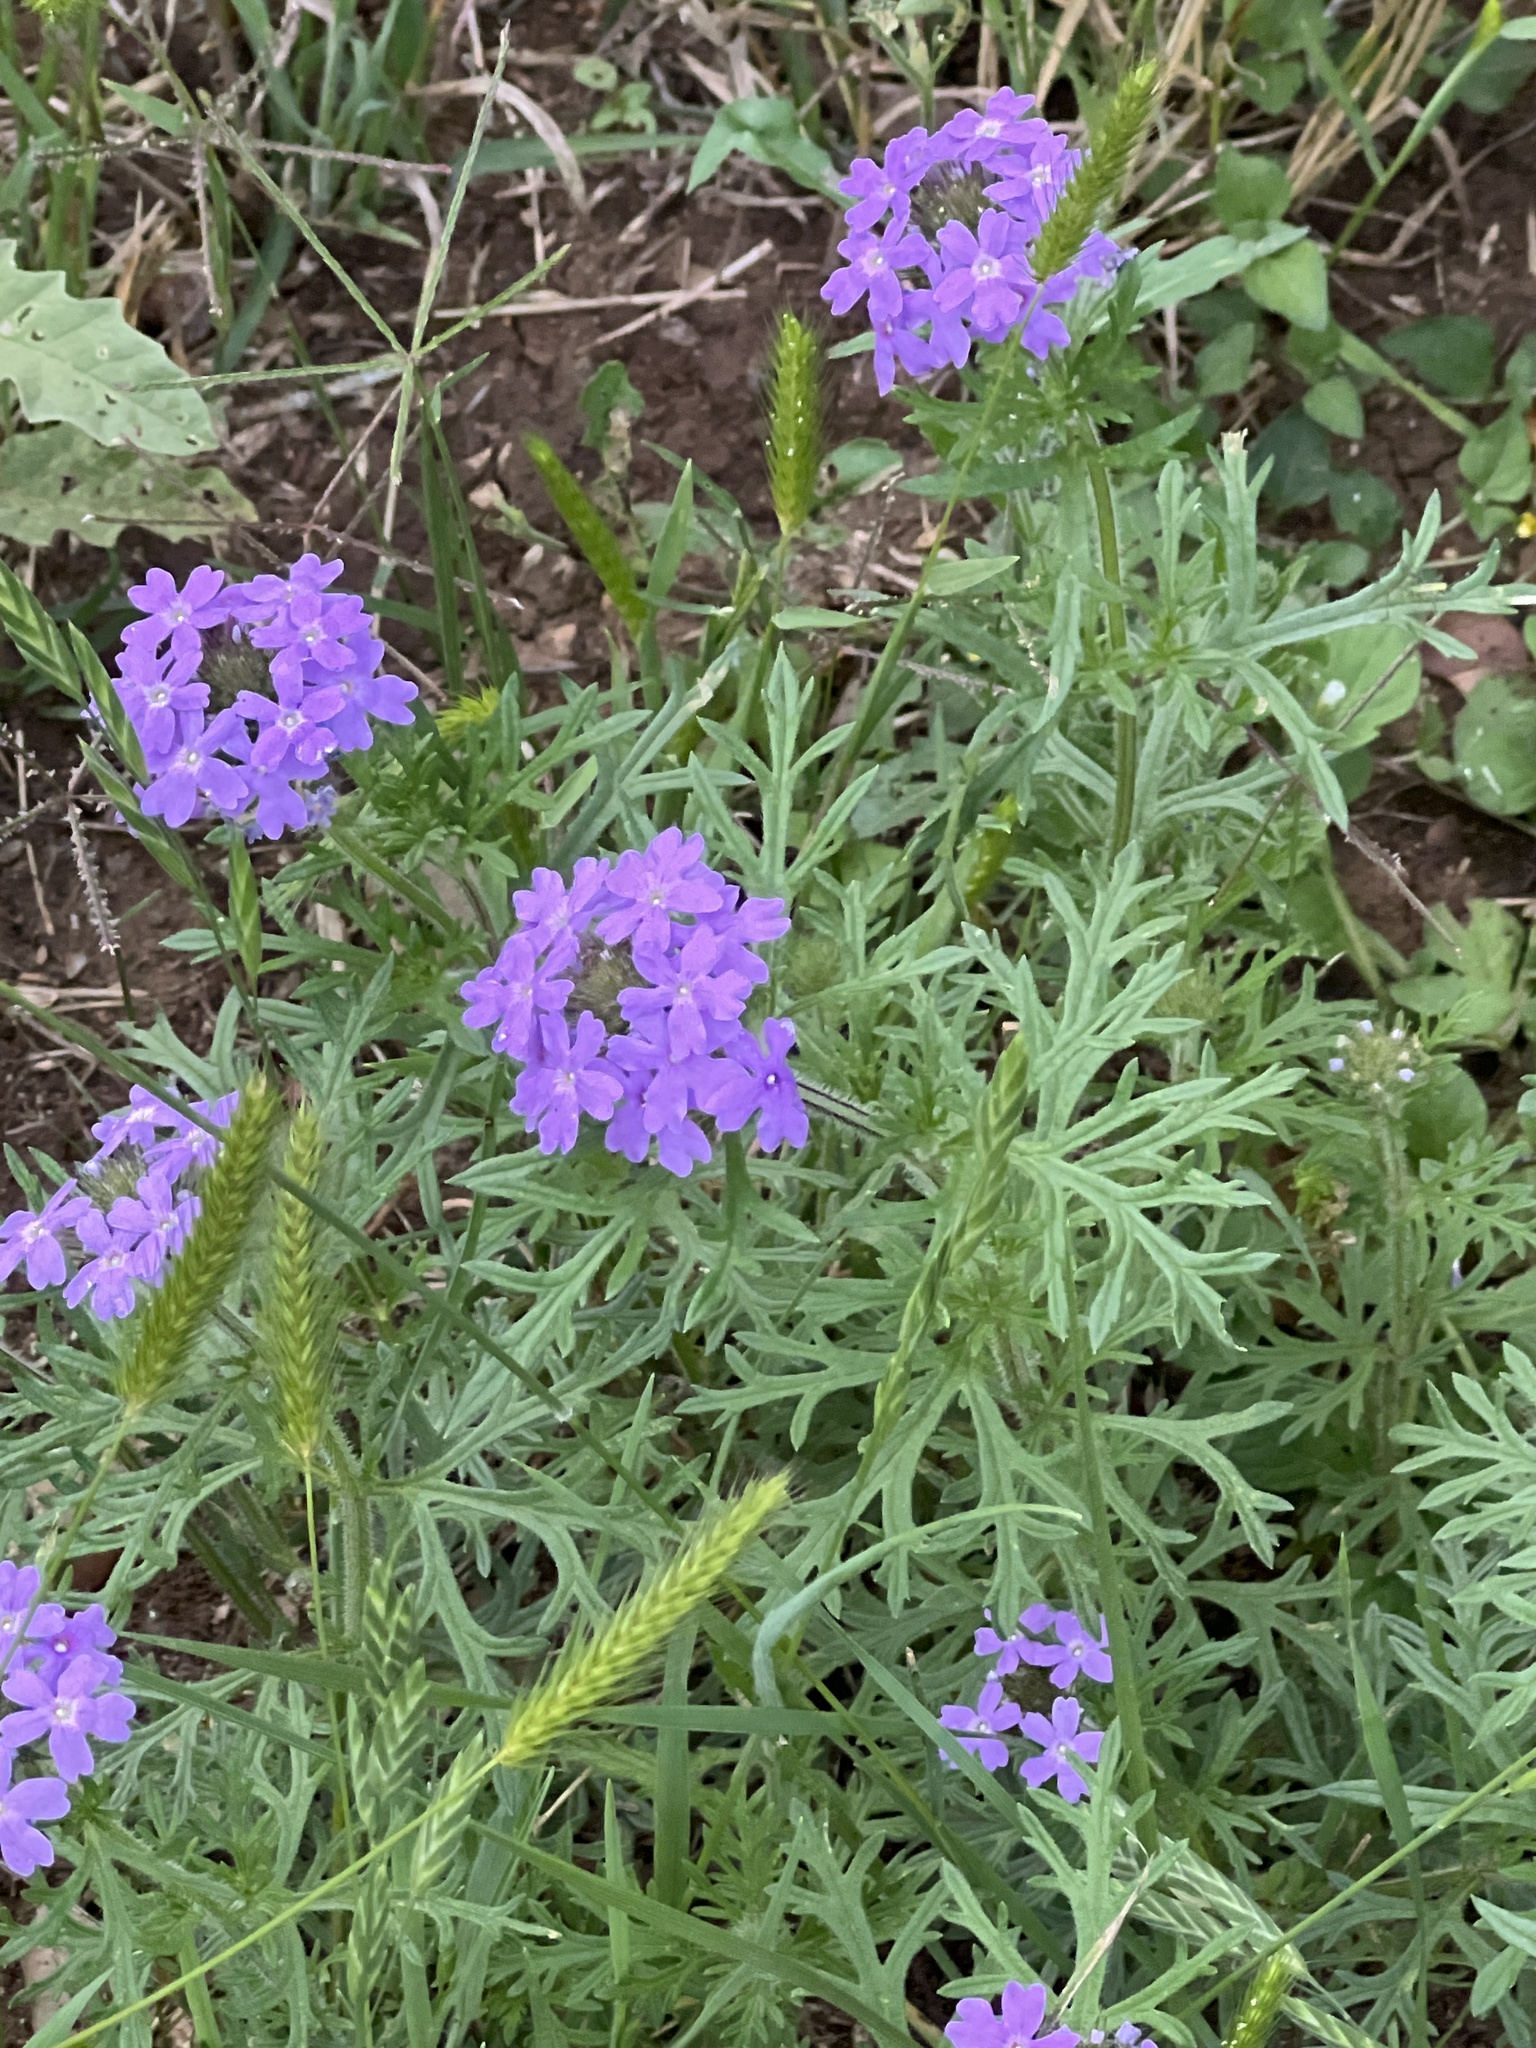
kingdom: Plantae
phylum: Tracheophyta
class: Magnoliopsida
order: Lamiales
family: Verbenaceae
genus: Verbena
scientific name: Verbena bipinnatifida
